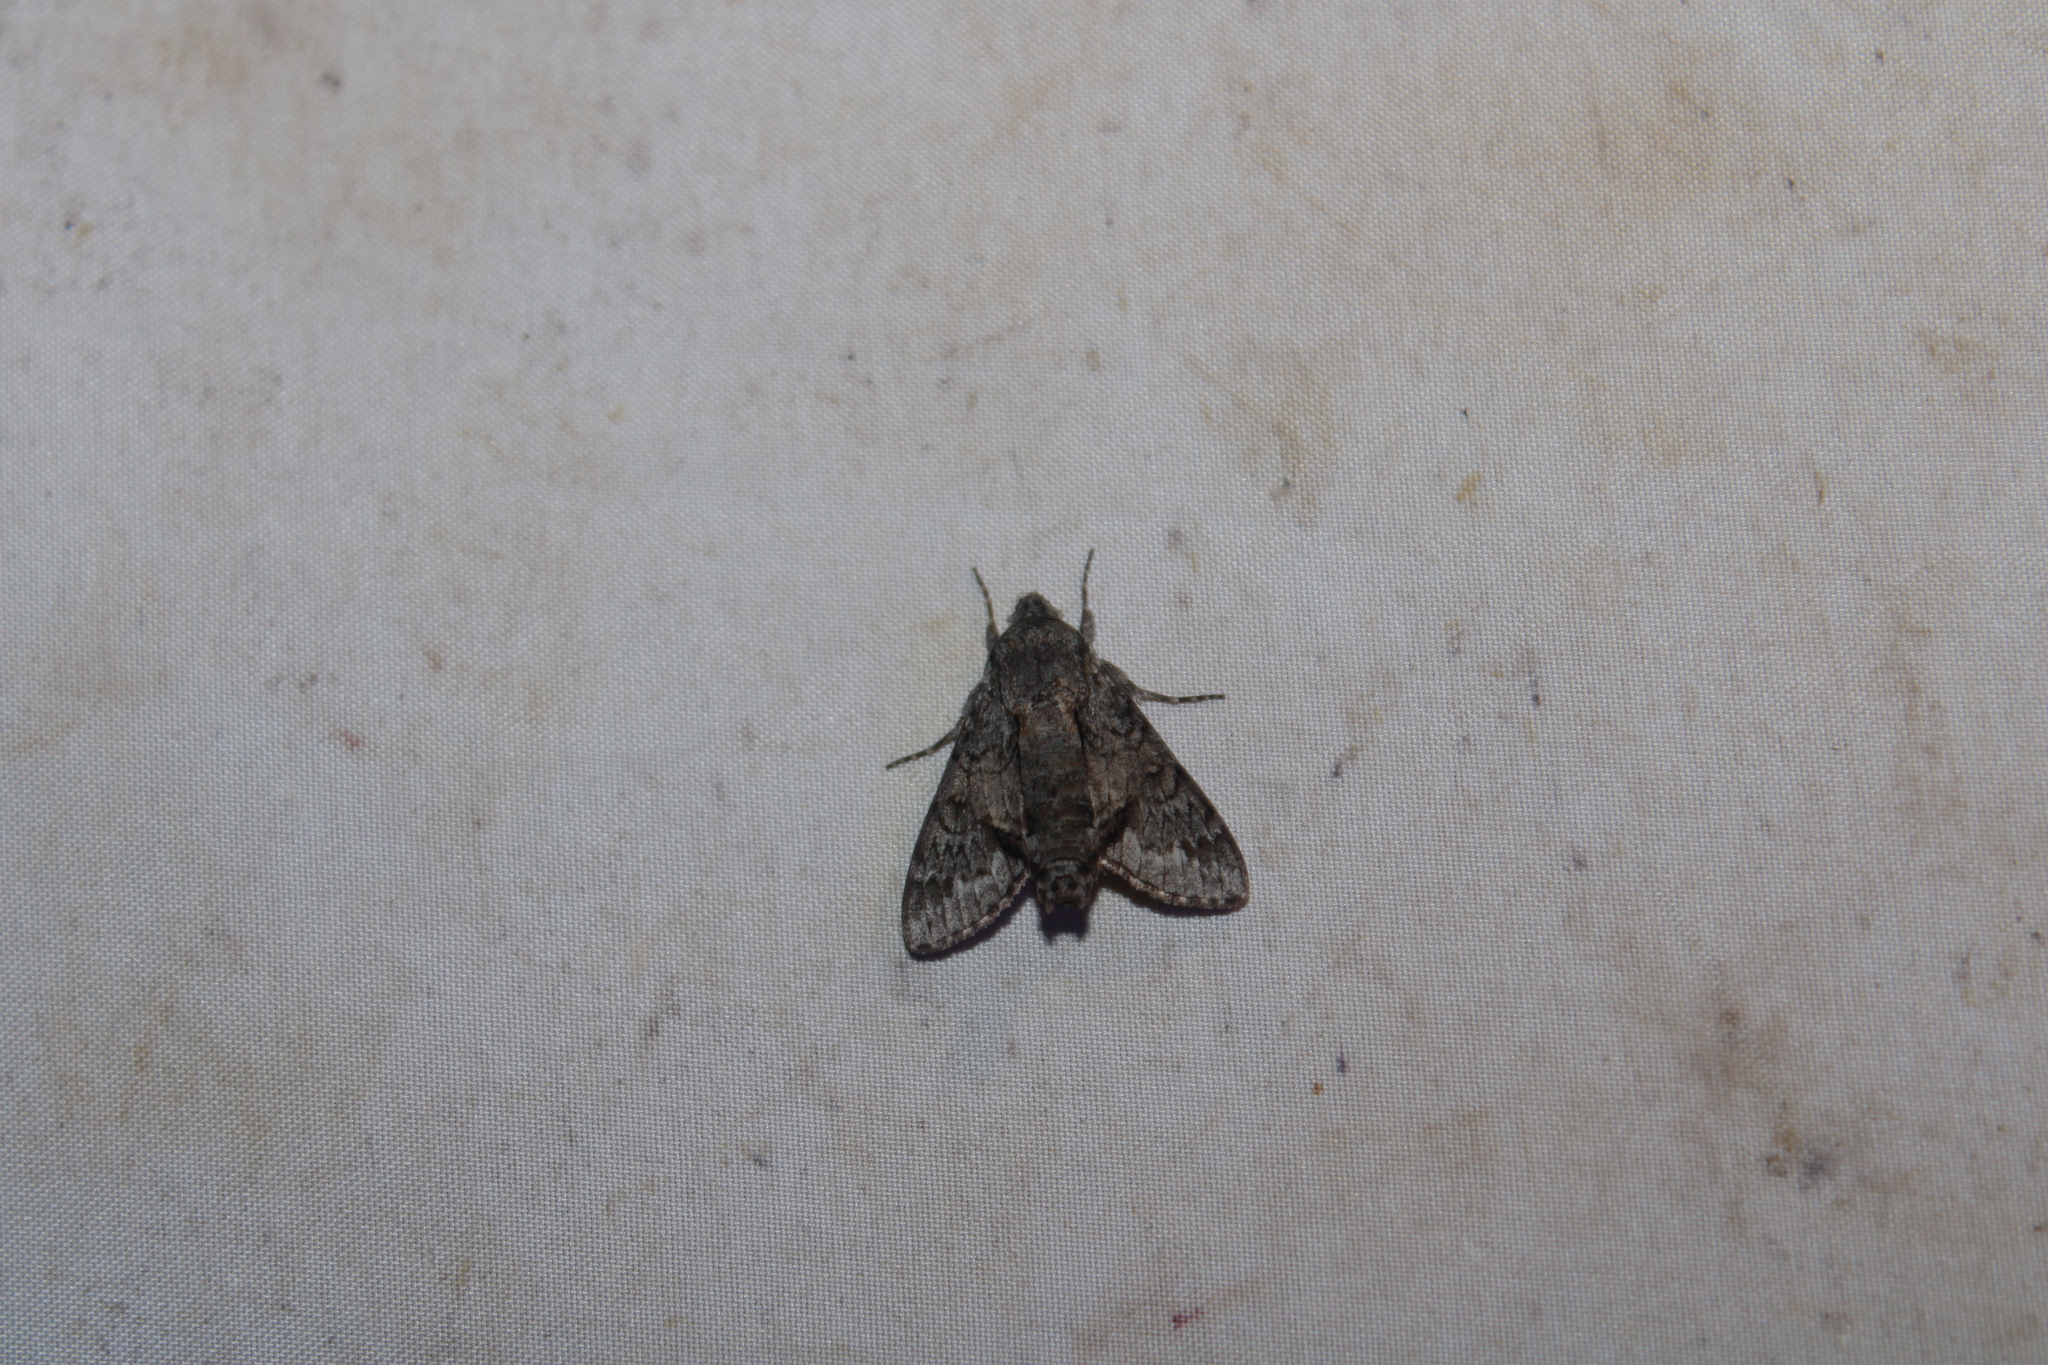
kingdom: Animalia
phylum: Arthropoda
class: Insecta
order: Lepidoptera
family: Sphingidae
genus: Cautethia
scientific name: Cautethia grotei
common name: Grote's sphinx
